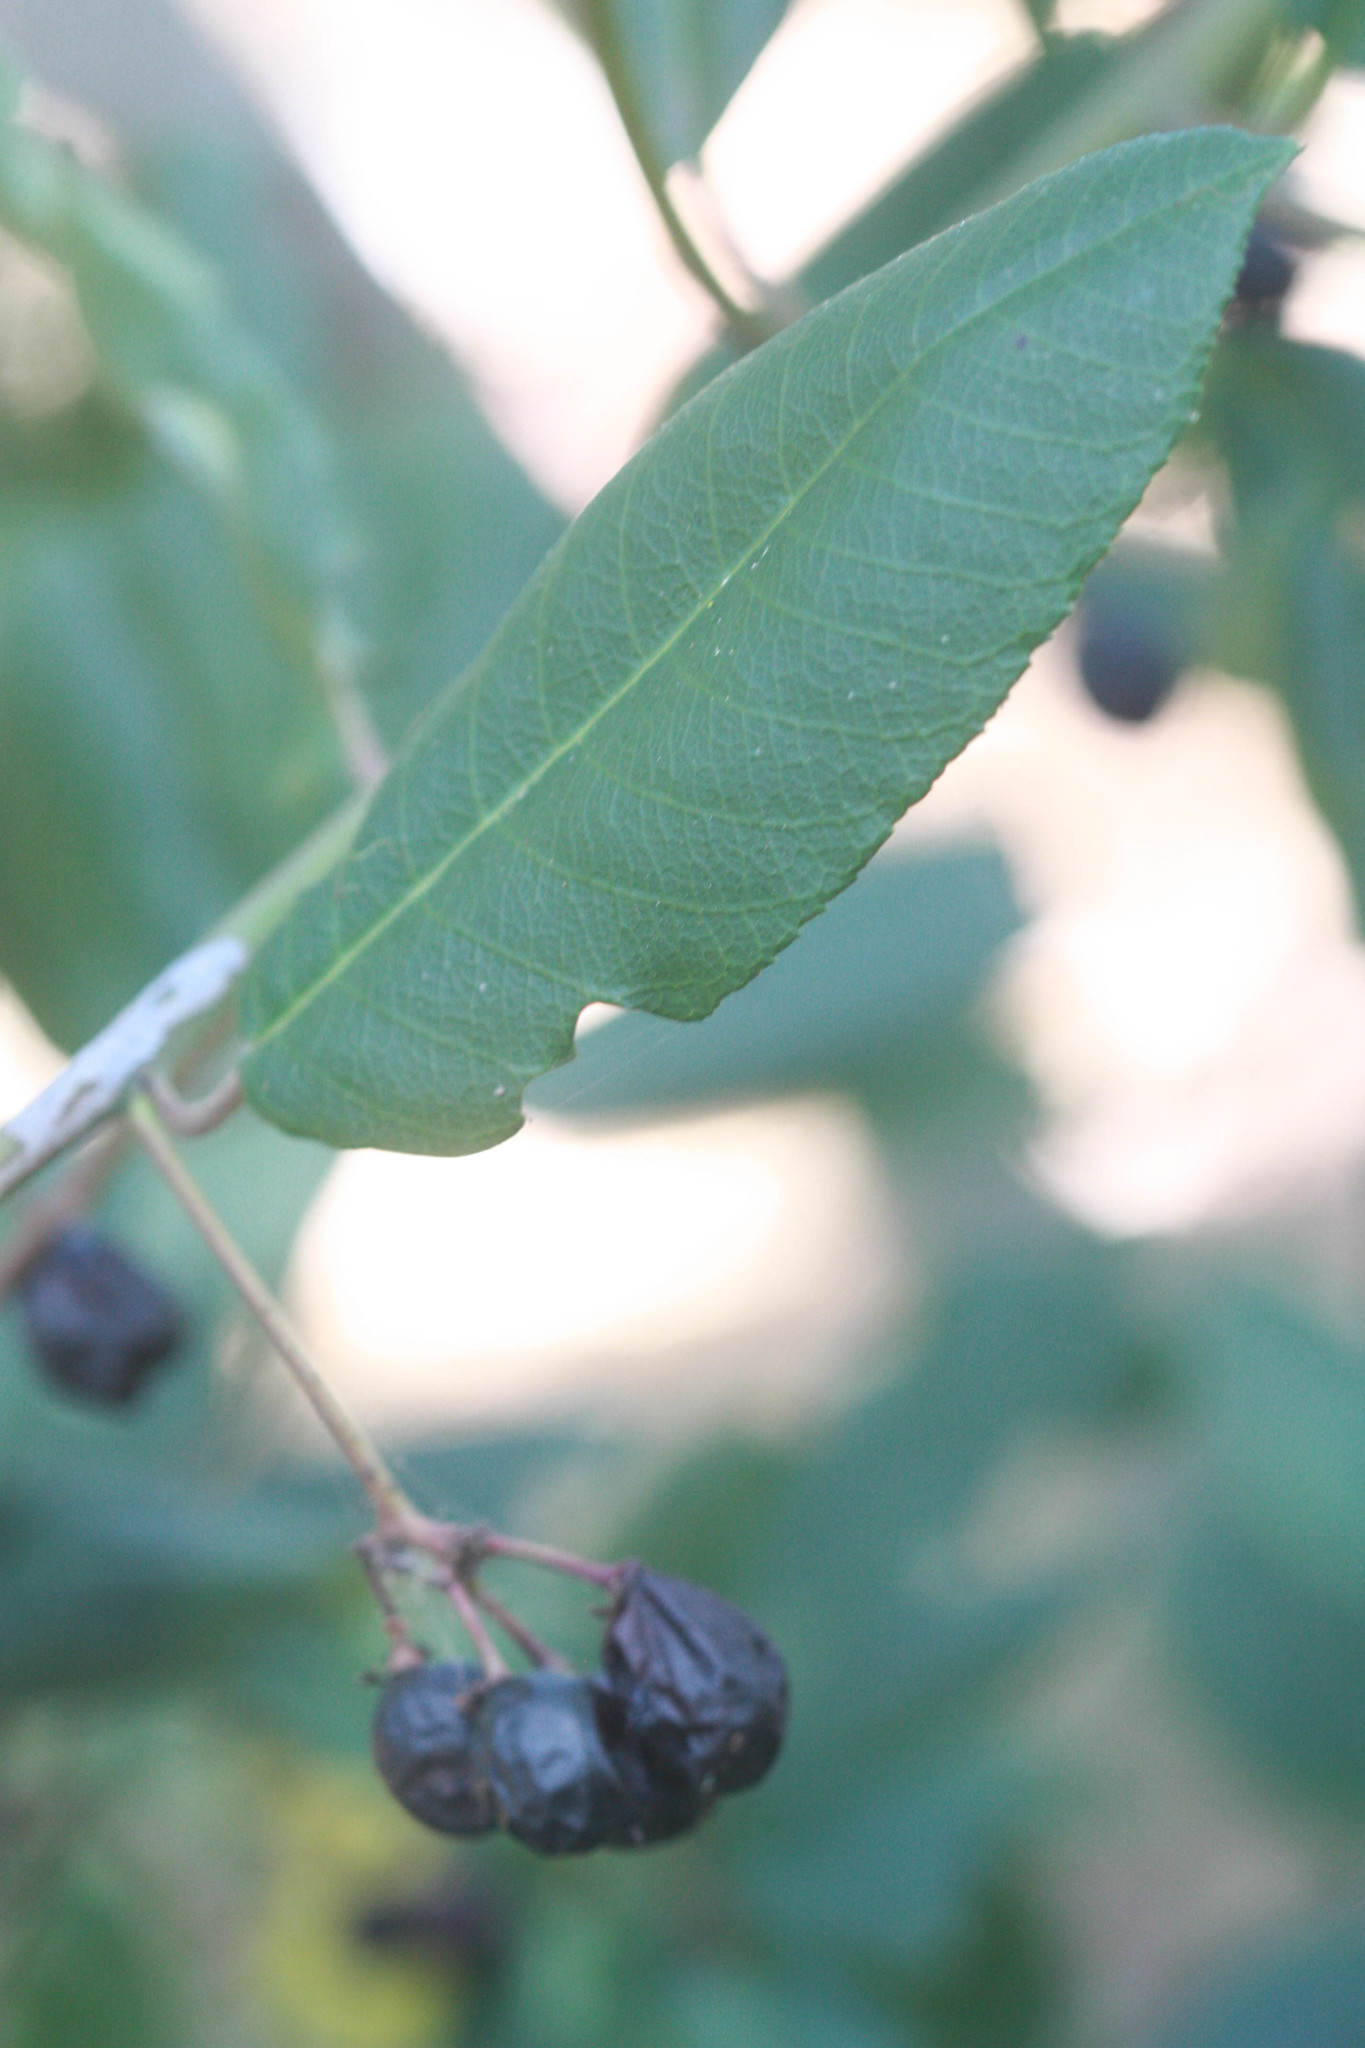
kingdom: Plantae
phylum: Tracheophyta
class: Magnoliopsida
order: Rosales
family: Rhamnaceae
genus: Frangula
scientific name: Frangula californica
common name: California buckthorn
